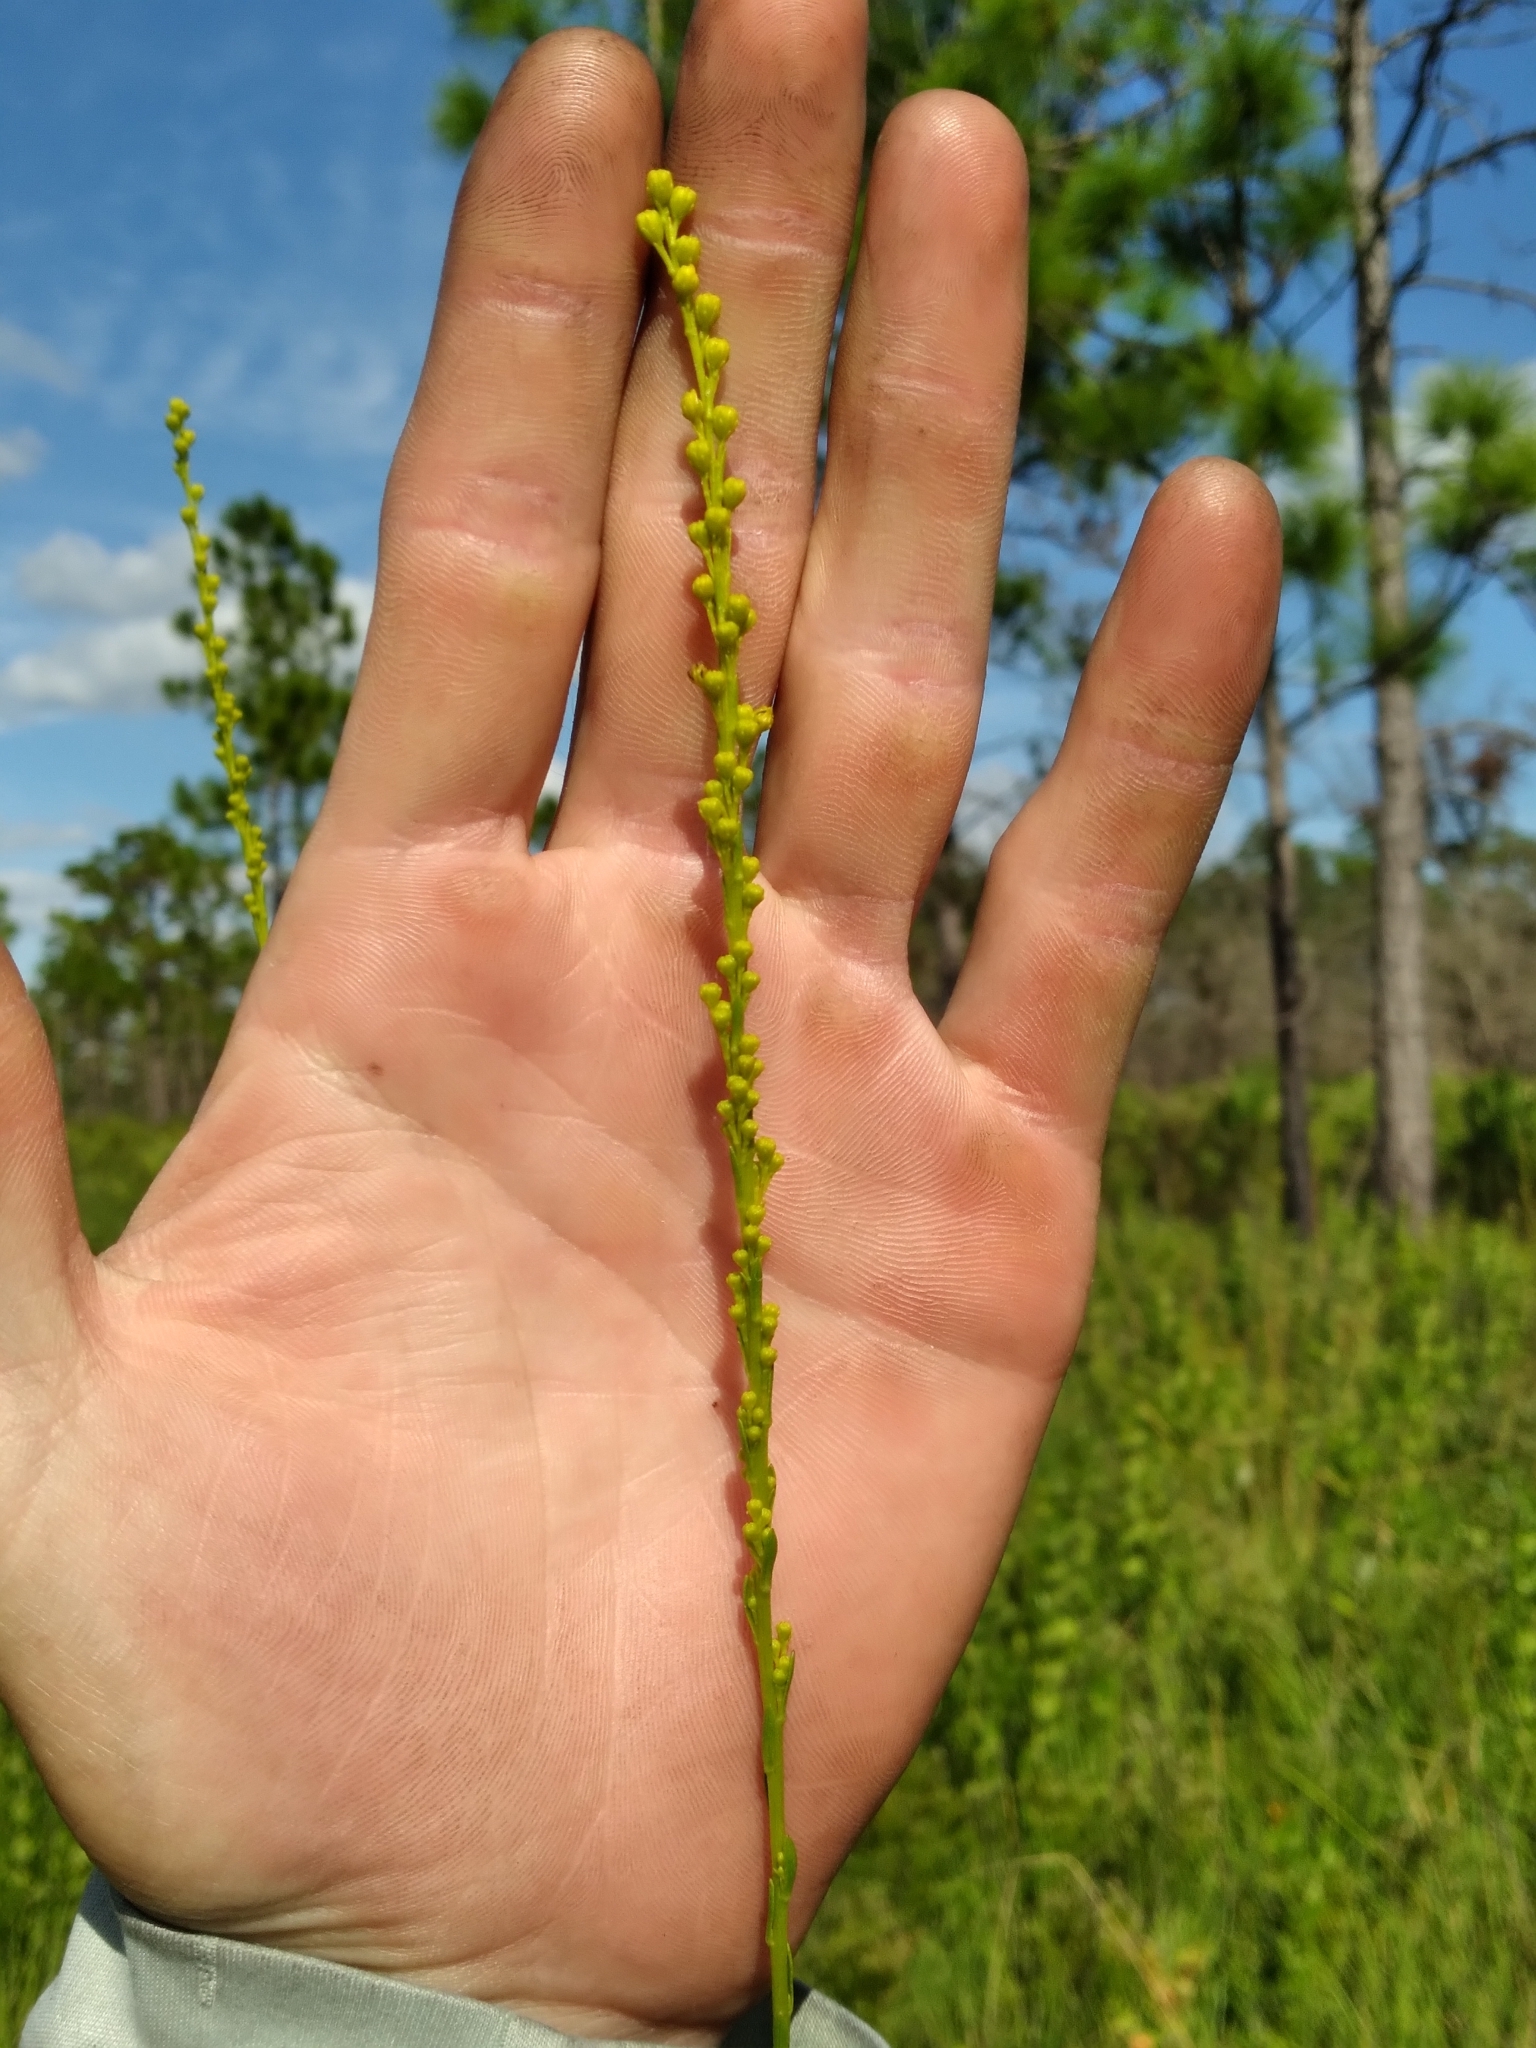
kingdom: Plantae
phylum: Tracheophyta
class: Magnoliopsida
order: Asterales
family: Asteraceae
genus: Solidago
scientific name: Solidago virgata
